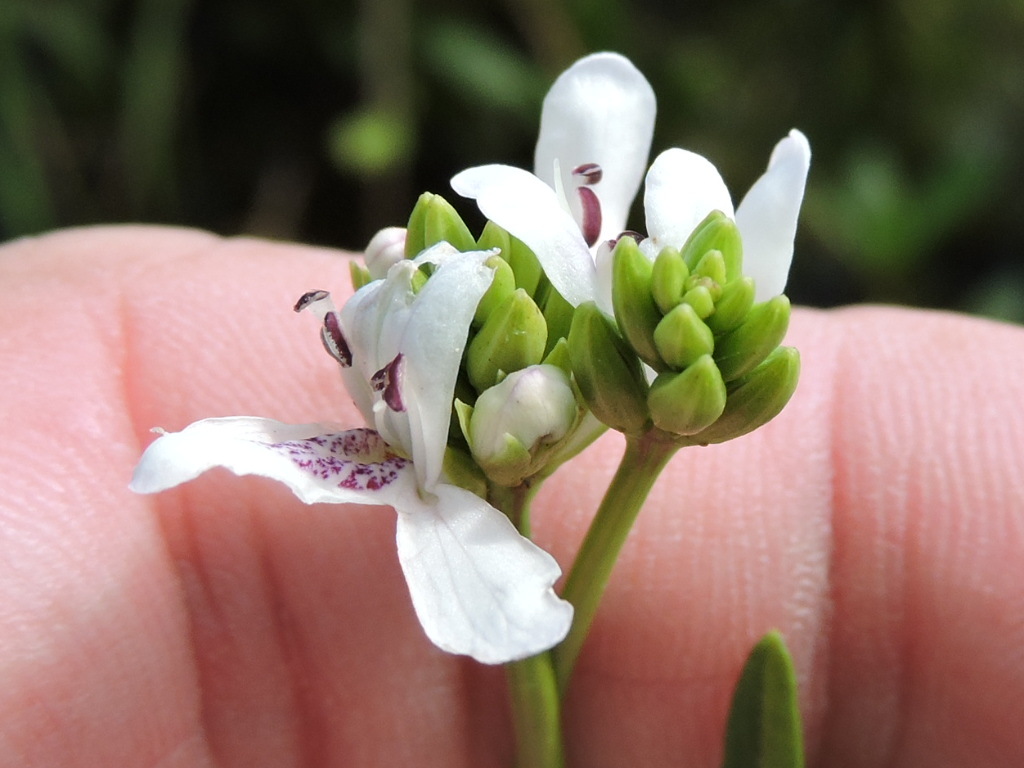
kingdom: Plantae
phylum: Tracheophyta
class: Magnoliopsida
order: Lamiales
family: Acanthaceae
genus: Dianthera
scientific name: Dianthera americana
